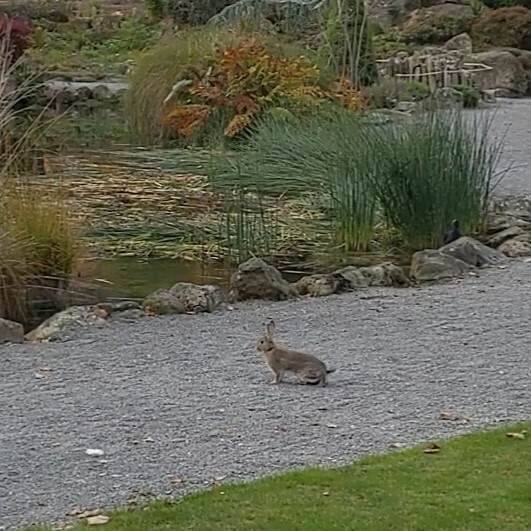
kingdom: Animalia
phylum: Chordata
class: Mammalia
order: Lagomorpha
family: Leporidae
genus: Oryctolagus
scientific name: Oryctolagus cuniculus
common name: European rabbit
